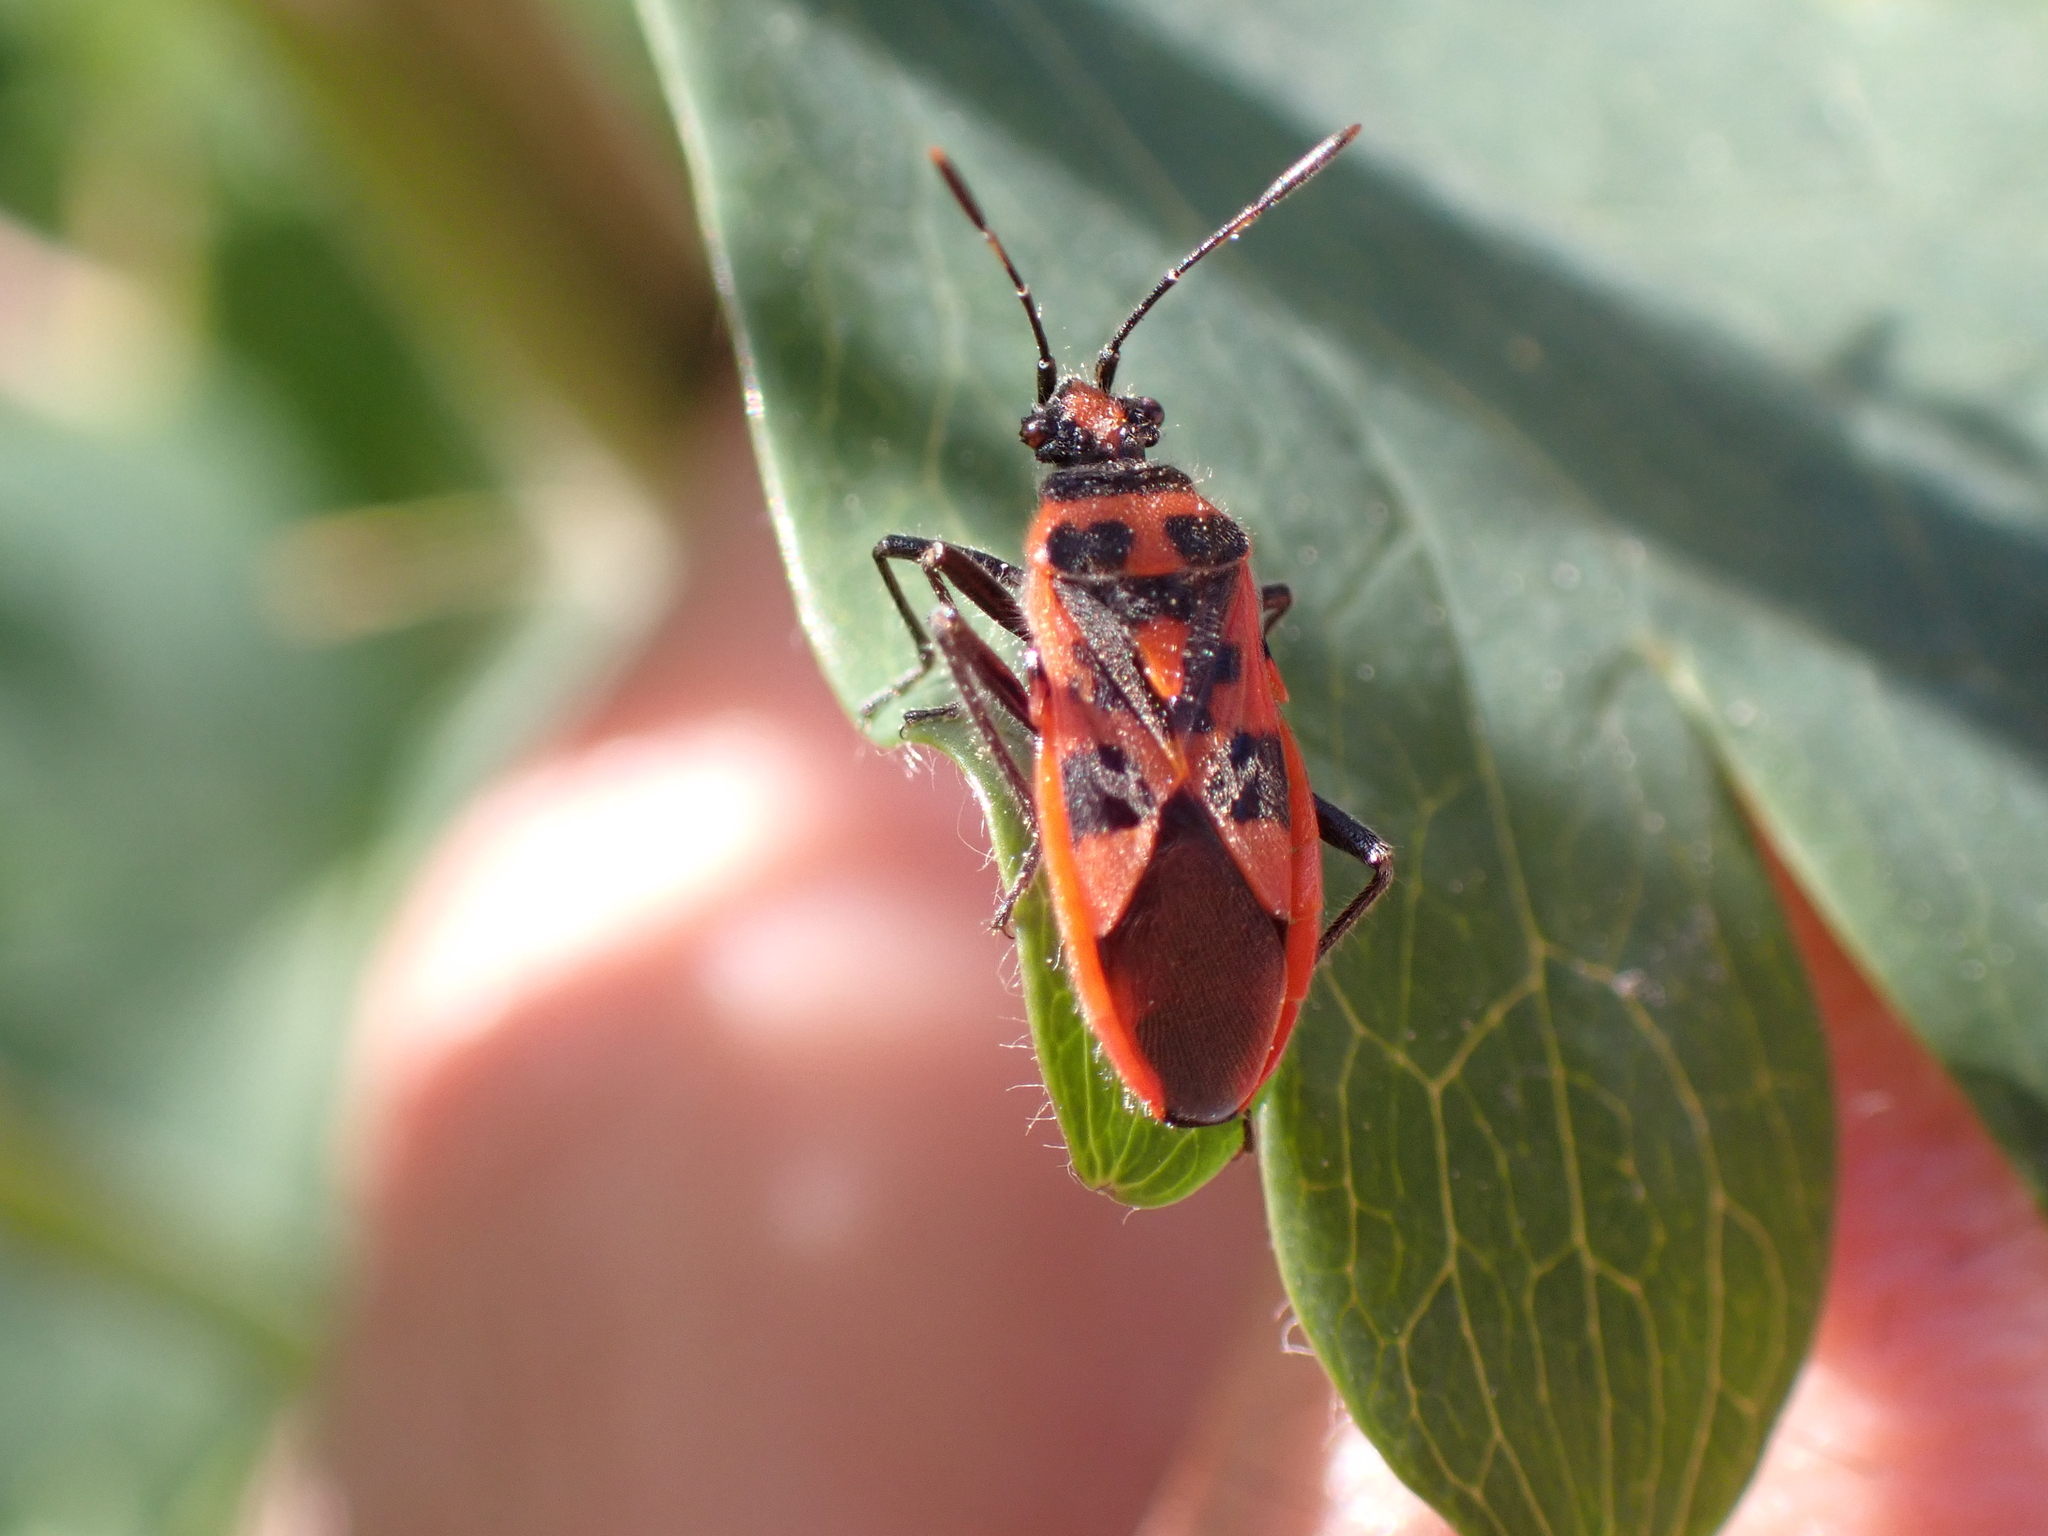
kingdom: Animalia
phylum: Arthropoda
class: Insecta
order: Hemiptera
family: Rhopalidae
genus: Corizus
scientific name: Corizus hyoscyami
